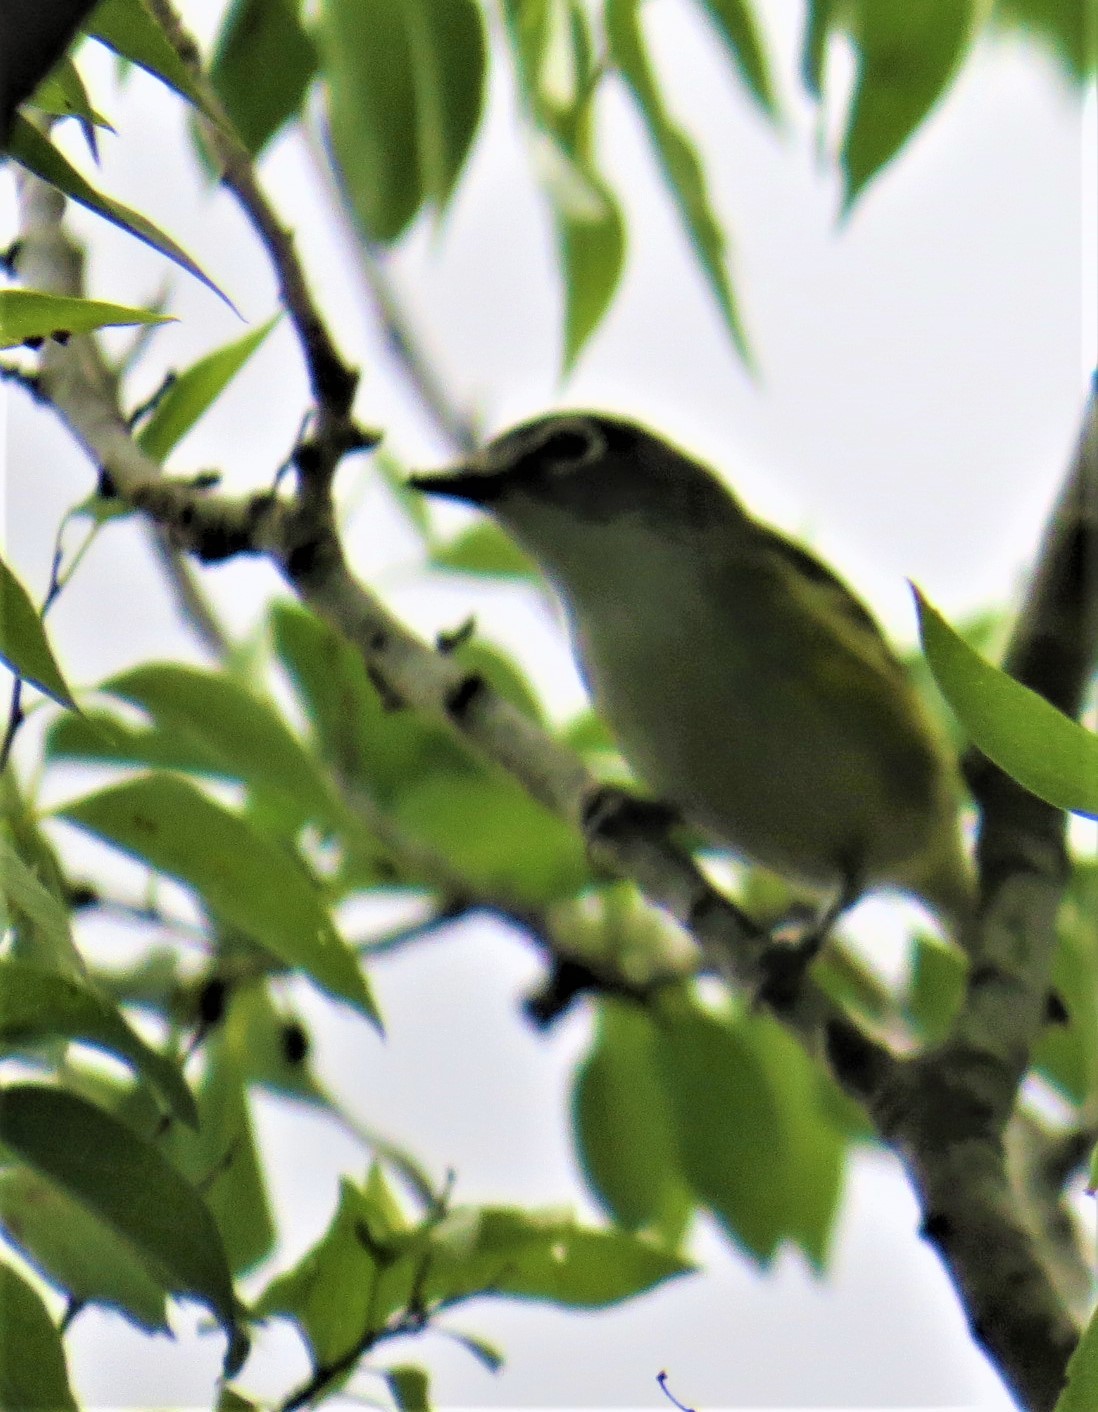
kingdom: Animalia
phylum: Chordata
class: Aves
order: Passeriformes
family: Vireonidae
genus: Vireo
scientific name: Vireo solitarius
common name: Blue-headed vireo
